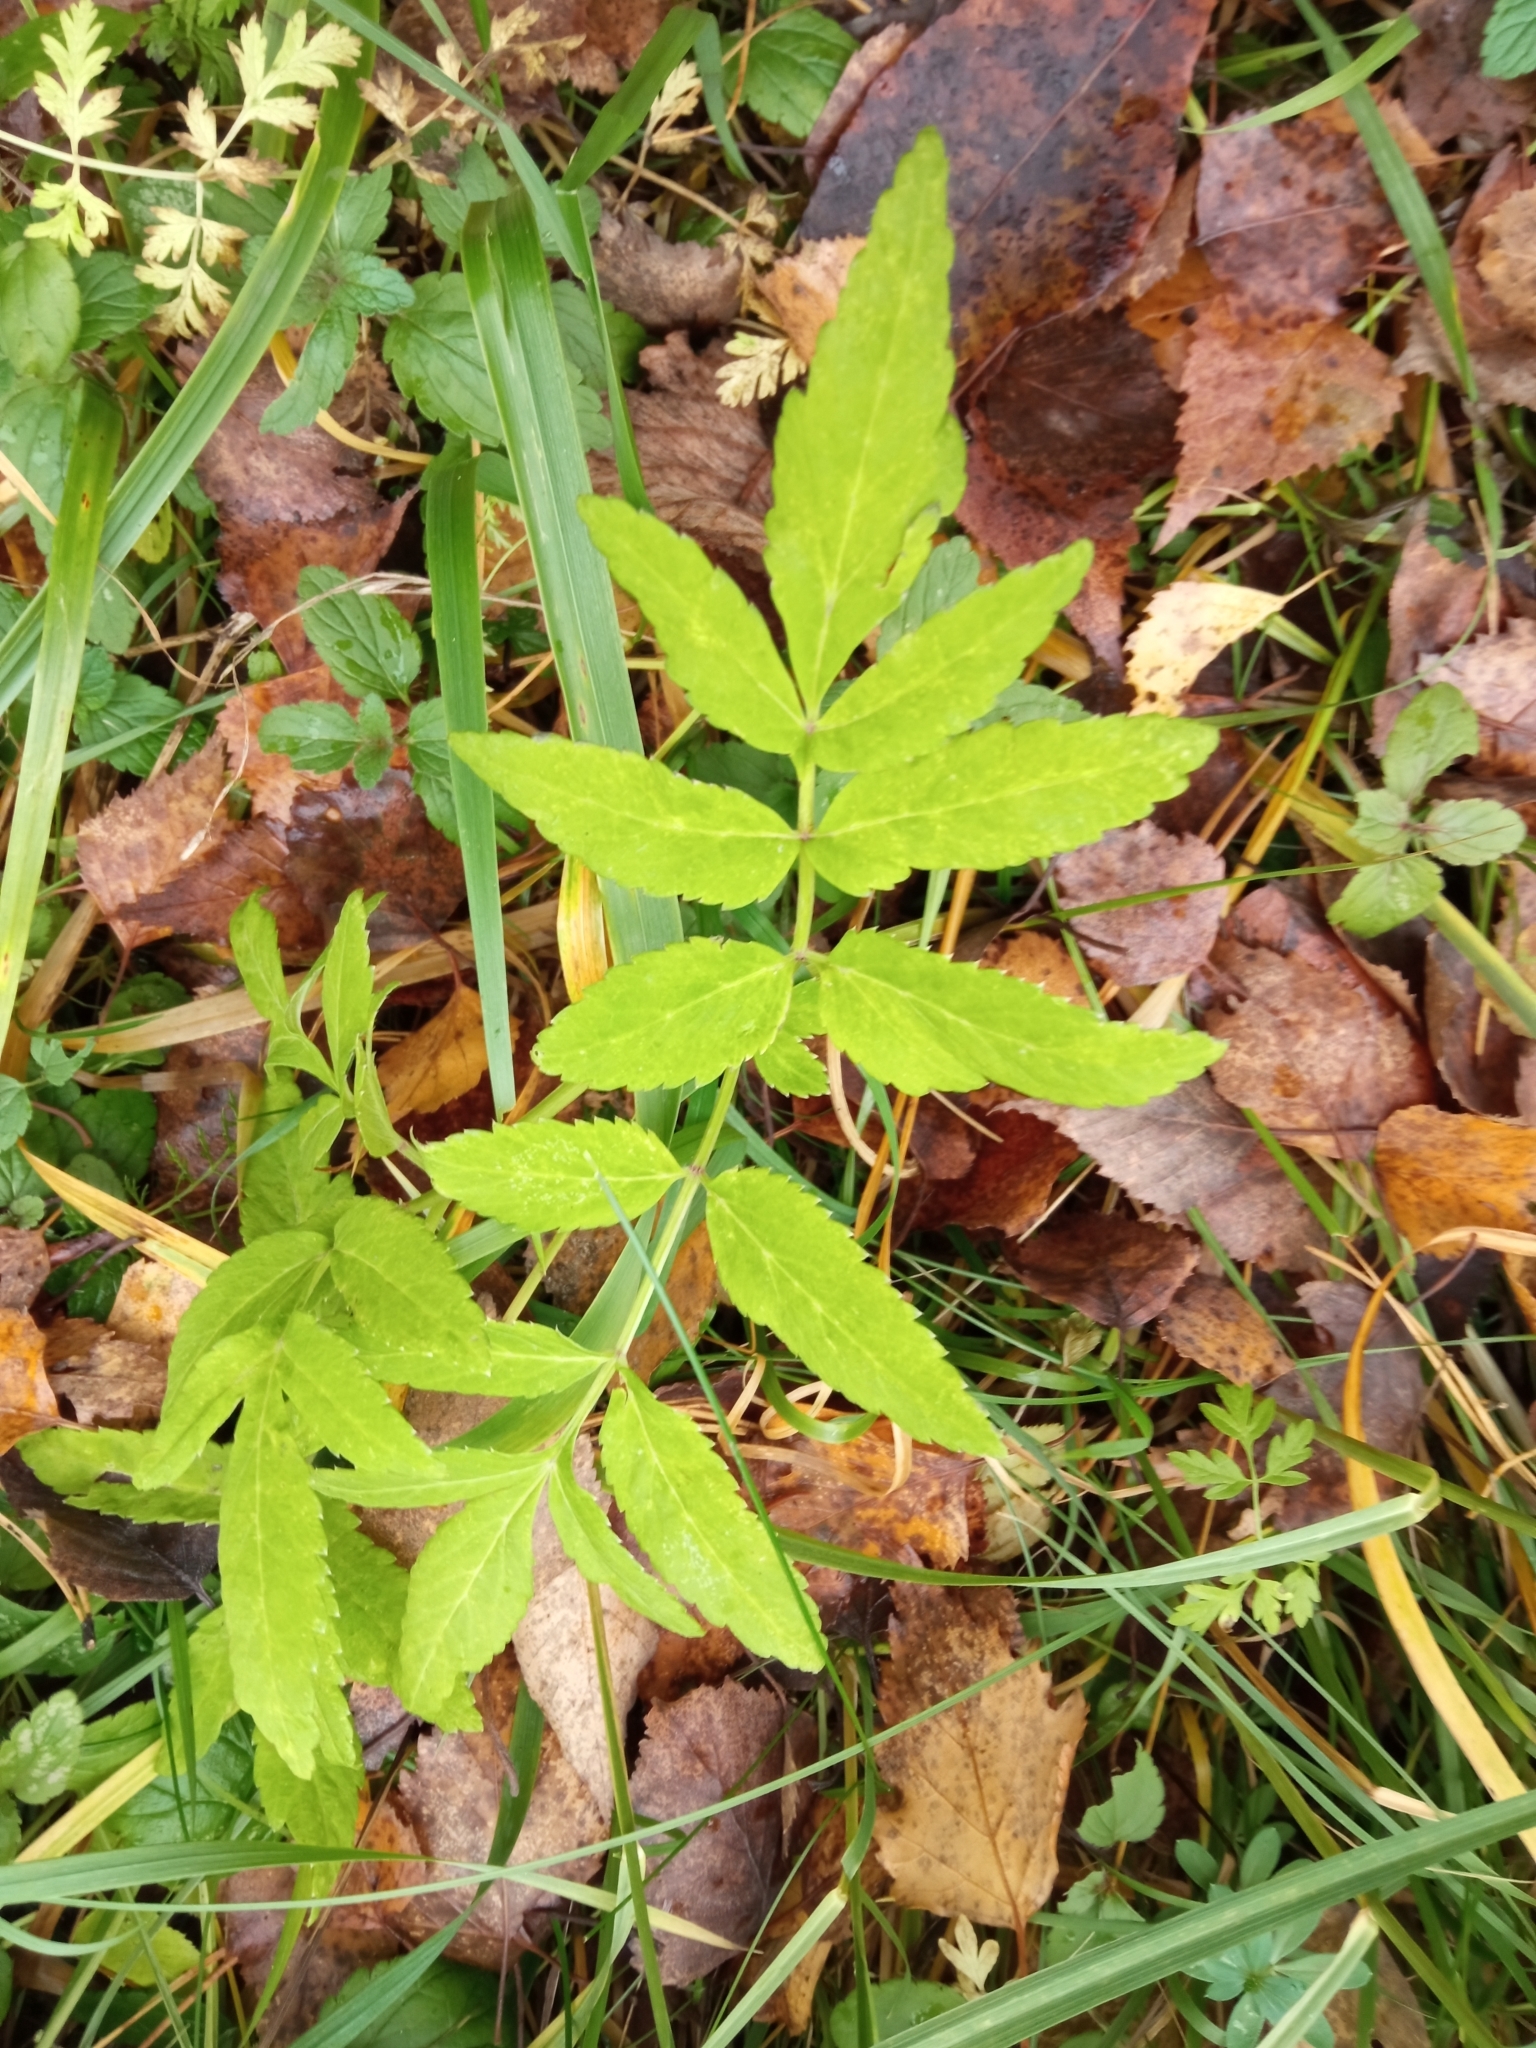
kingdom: Plantae
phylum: Tracheophyta
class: Magnoliopsida
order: Apiales
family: Apiaceae
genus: Angelica
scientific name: Angelica sylvestris
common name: Wild angelica
